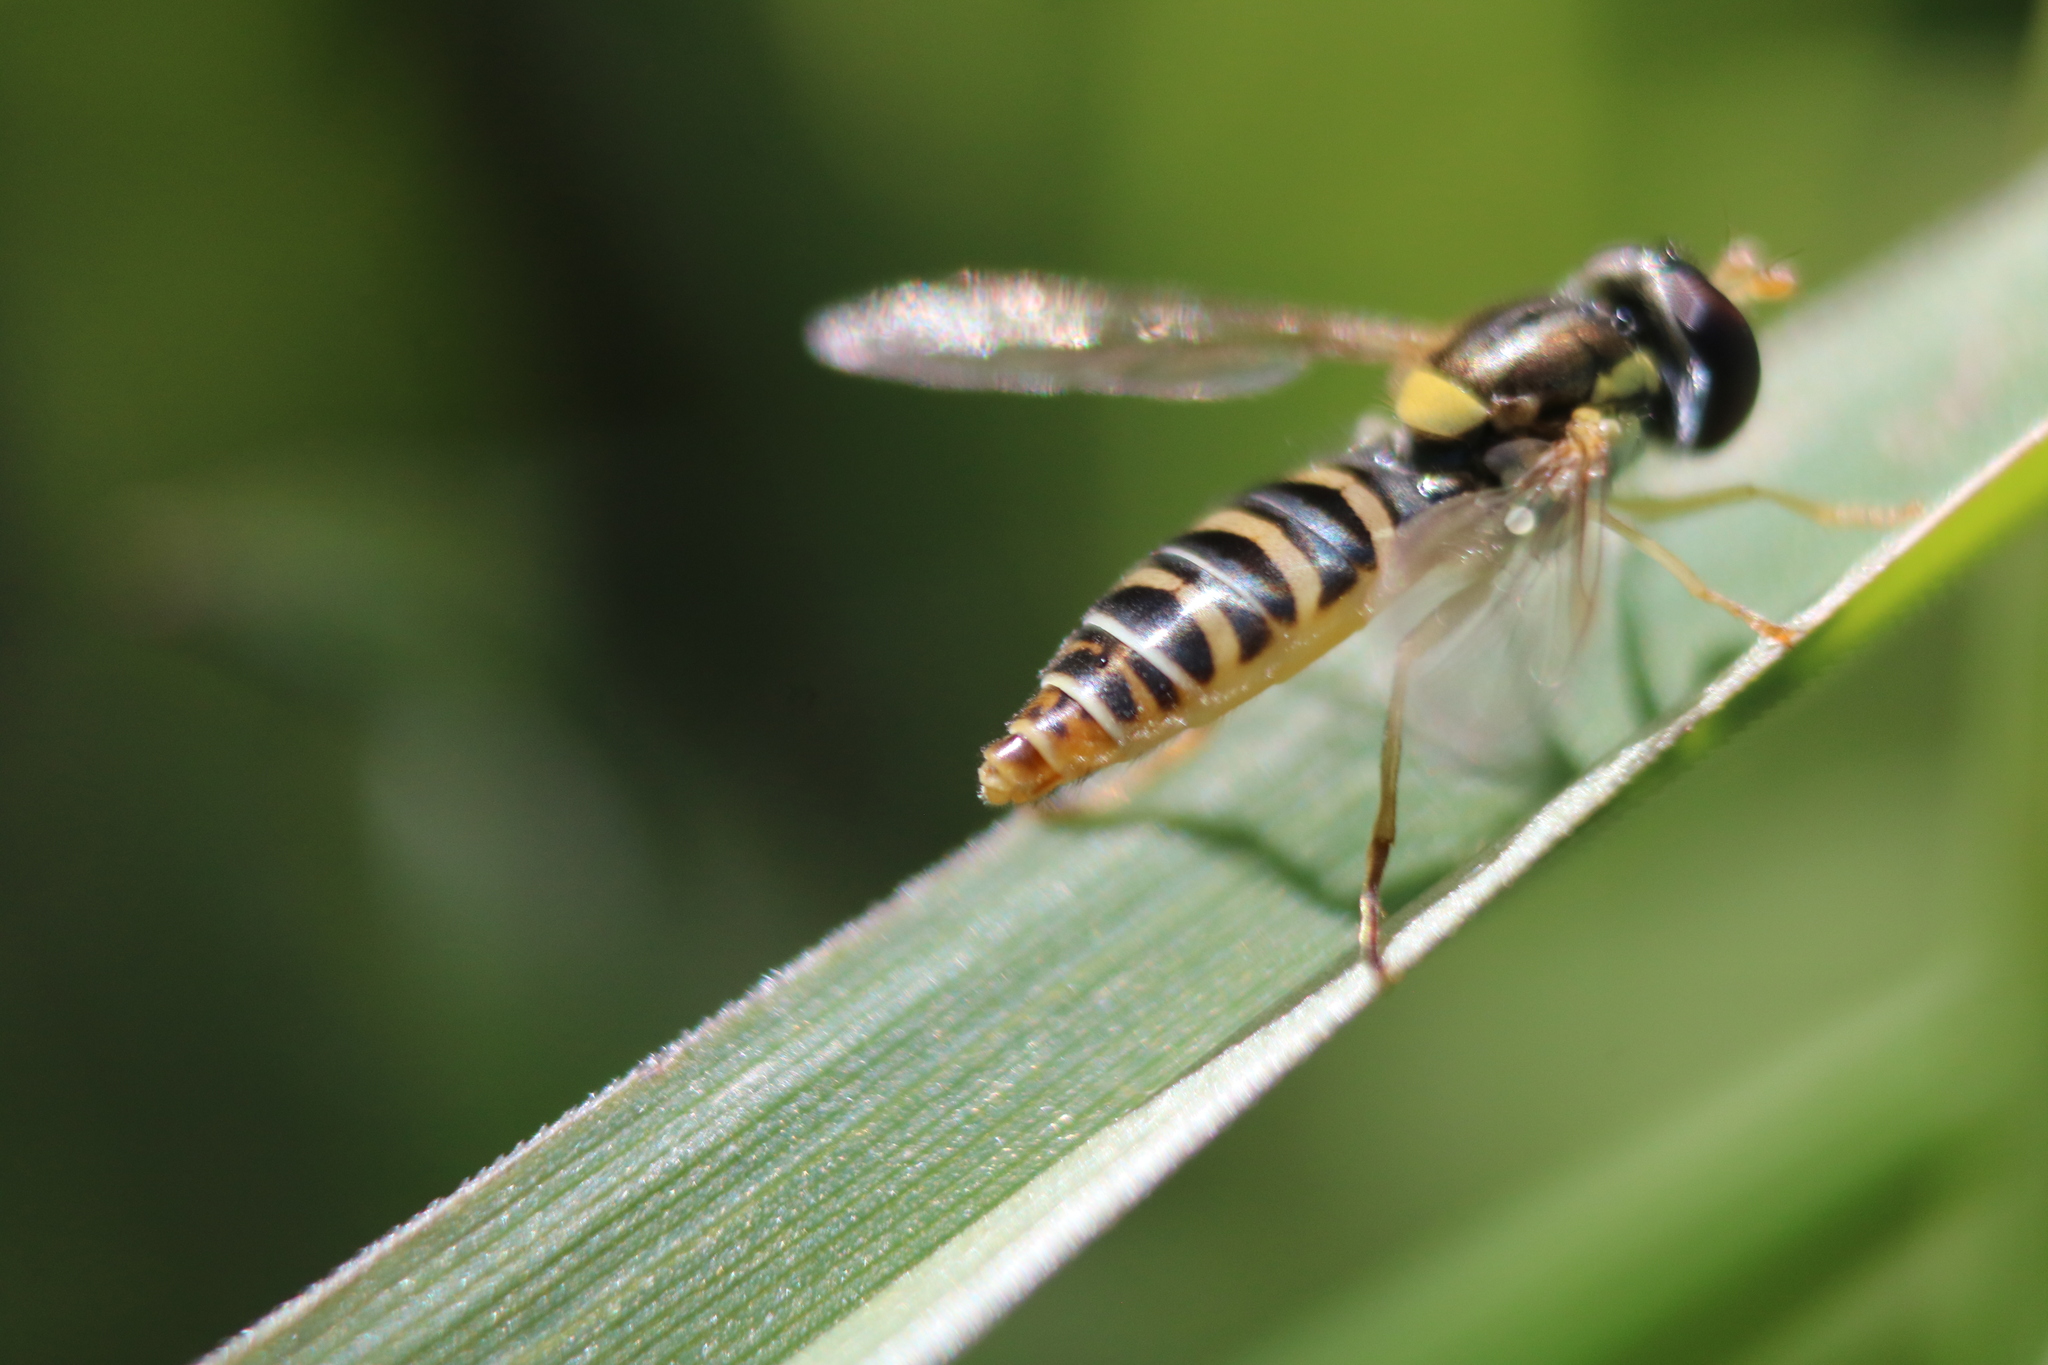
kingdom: Animalia
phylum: Arthropoda
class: Insecta
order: Diptera
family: Syrphidae
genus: Sphaerophoria
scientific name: Sphaerophoria contigua
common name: Tufted globetail
